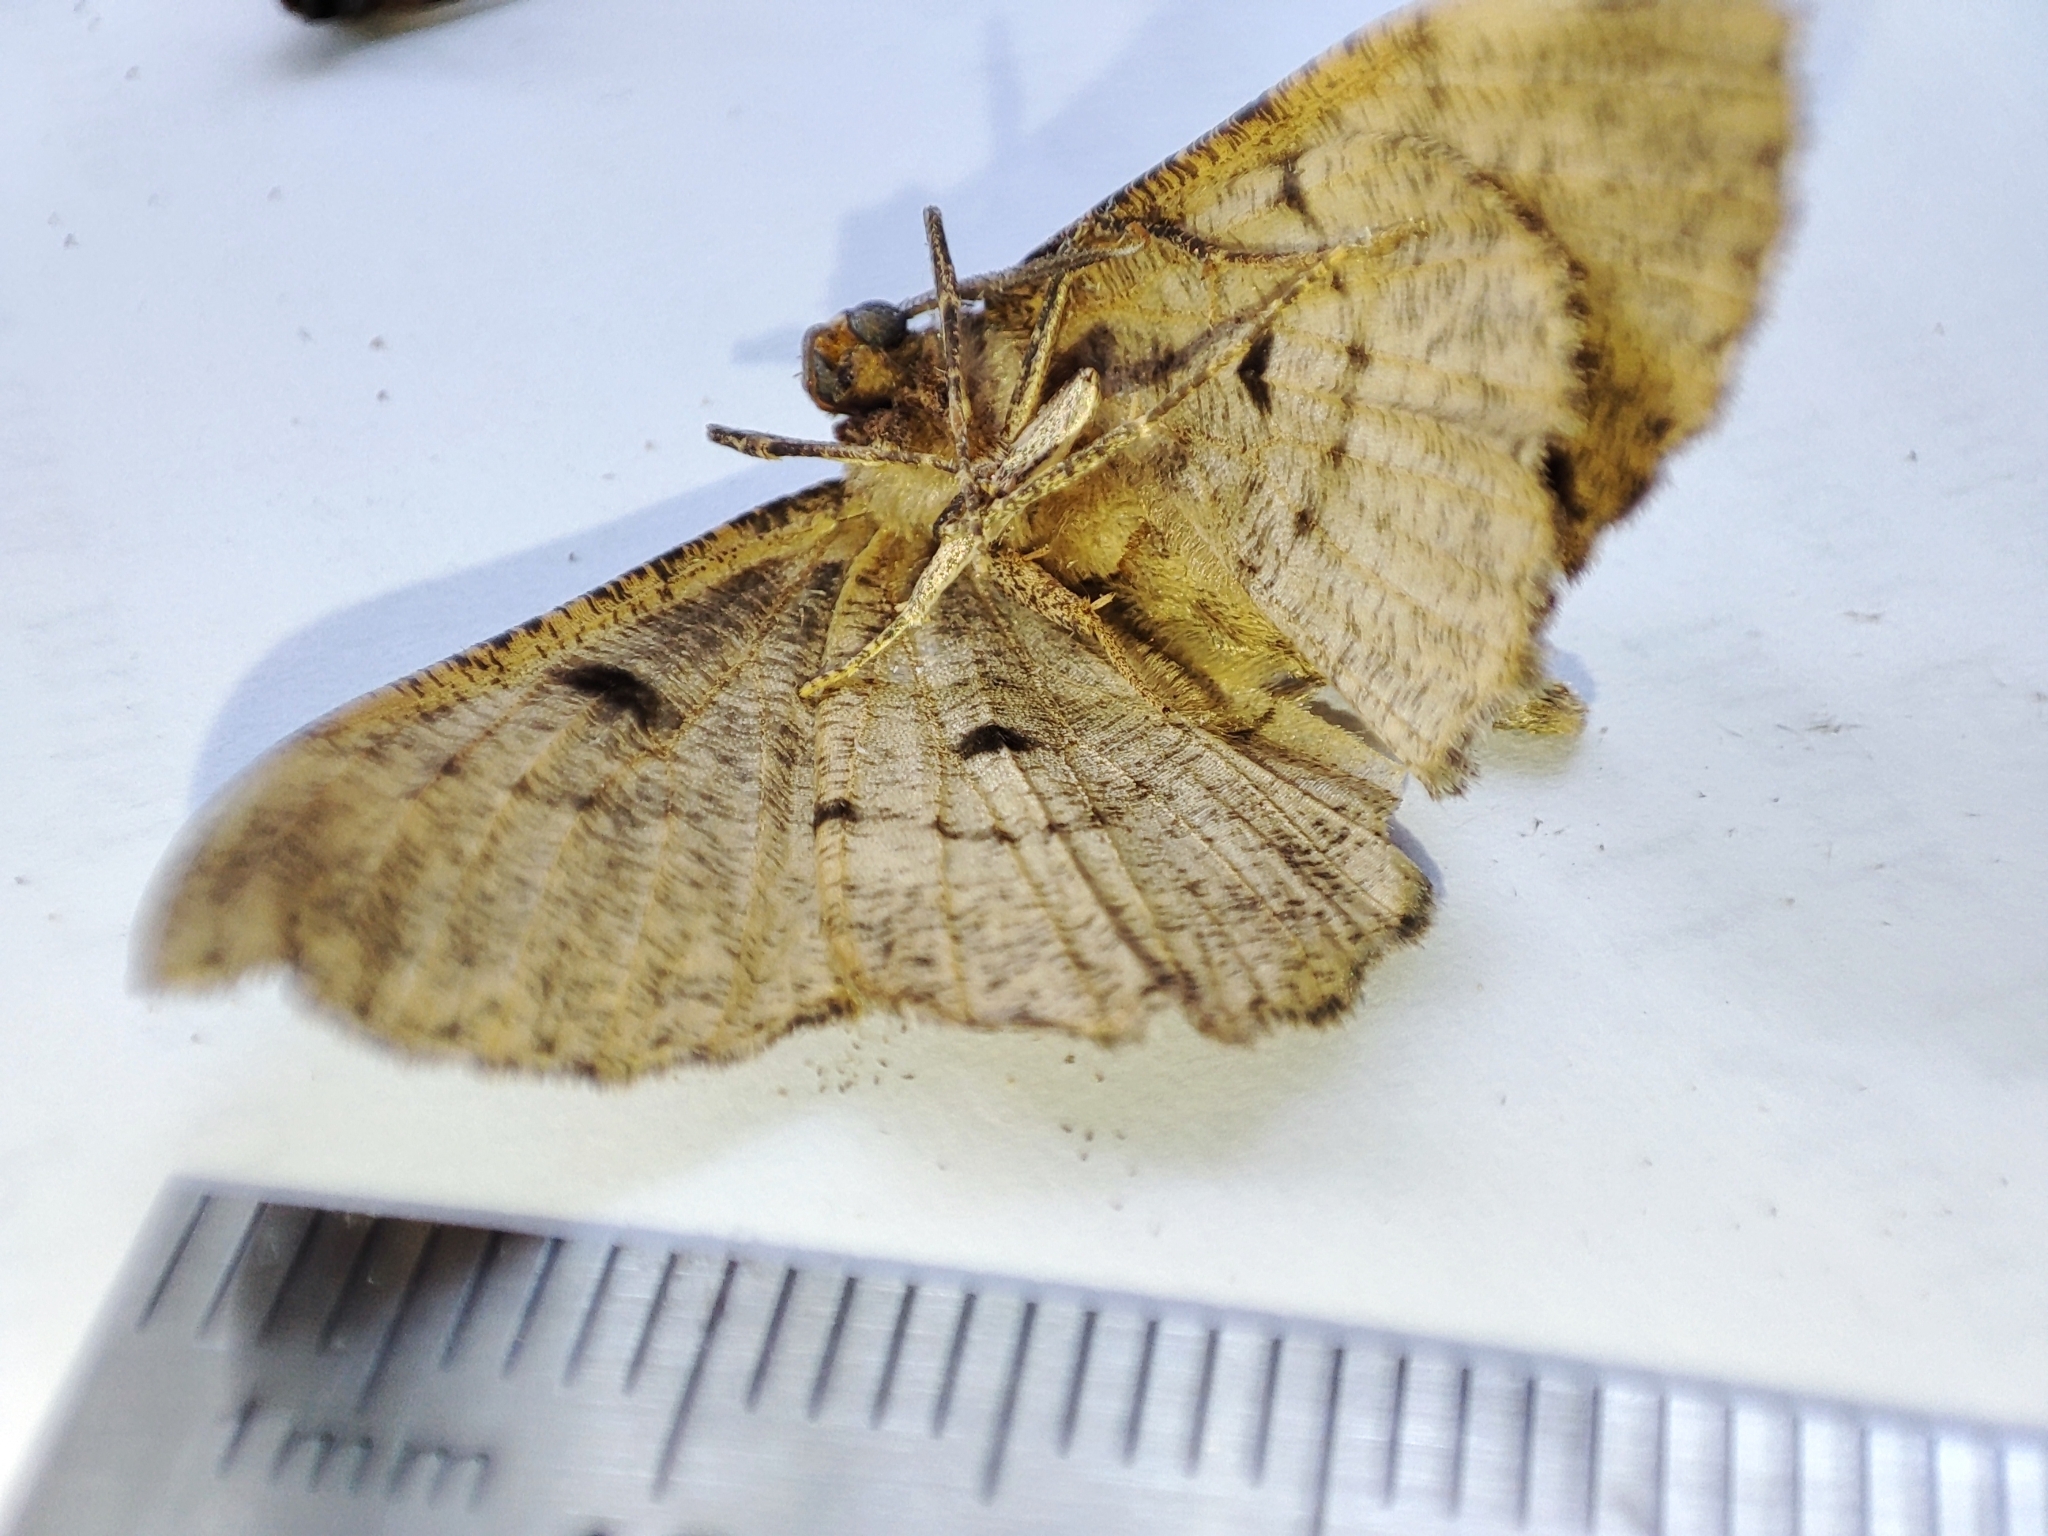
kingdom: Animalia
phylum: Arthropoda
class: Insecta
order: Lepidoptera
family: Geometridae
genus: Hypomecis
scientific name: Hypomecis punctinalis
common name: Pale oak beauty
